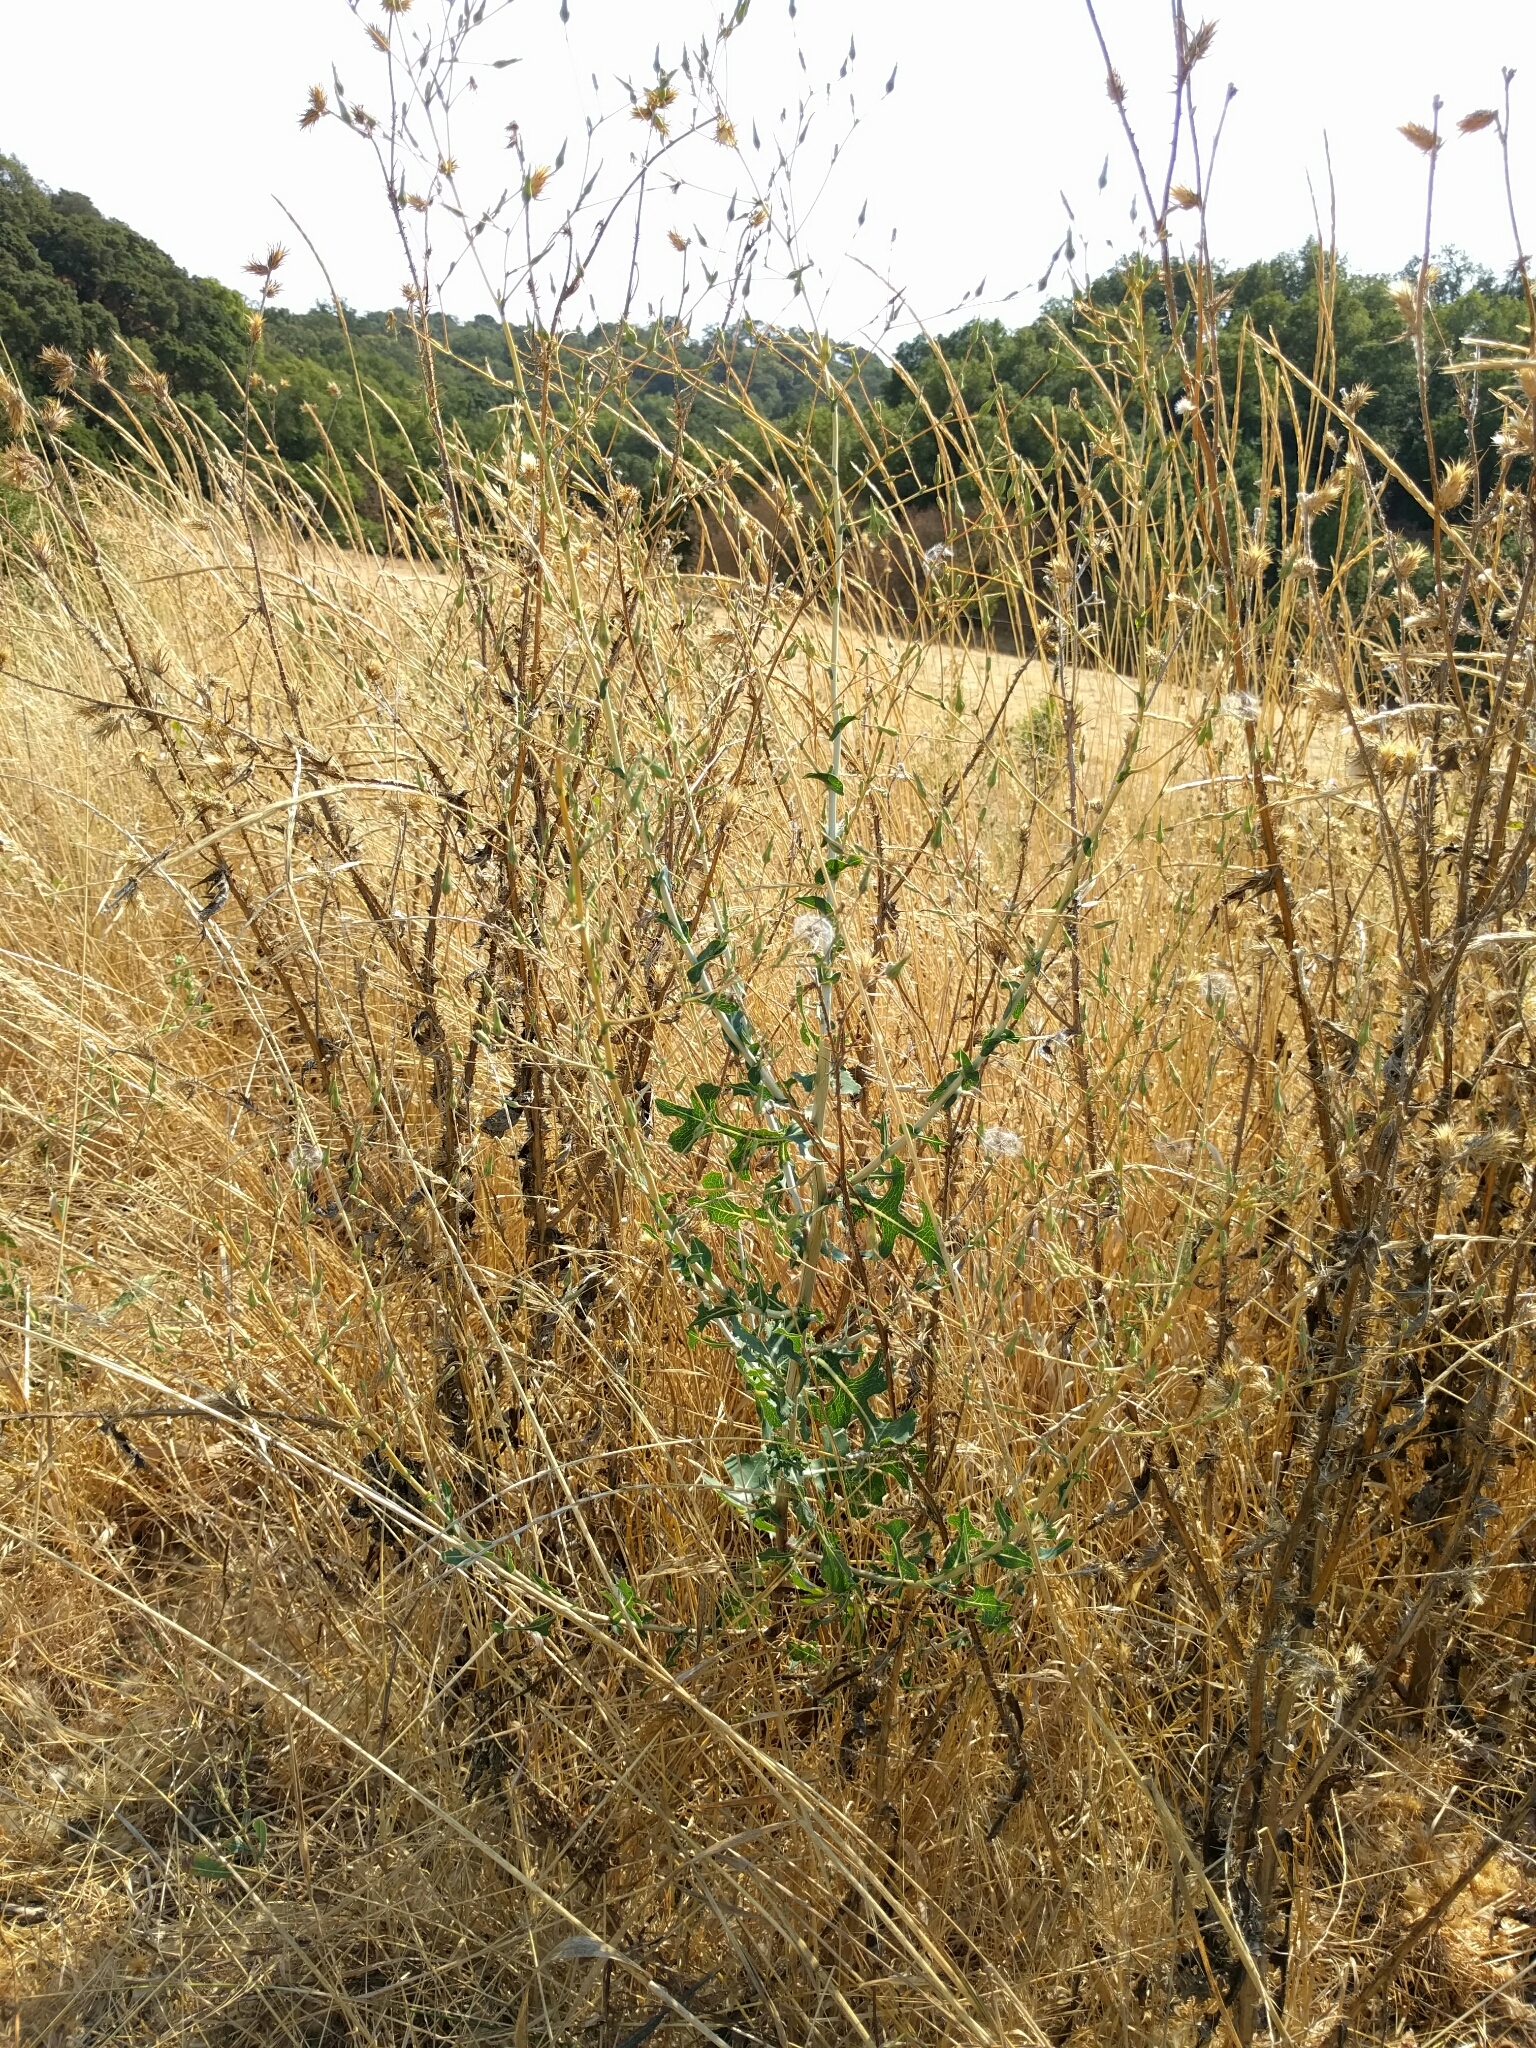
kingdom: Plantae
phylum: Tracheophyta
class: Magnoliopsida
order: Asterales
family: Asteraceae
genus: Lactuca
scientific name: Lactuca serriola
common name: Prickly lettuce
